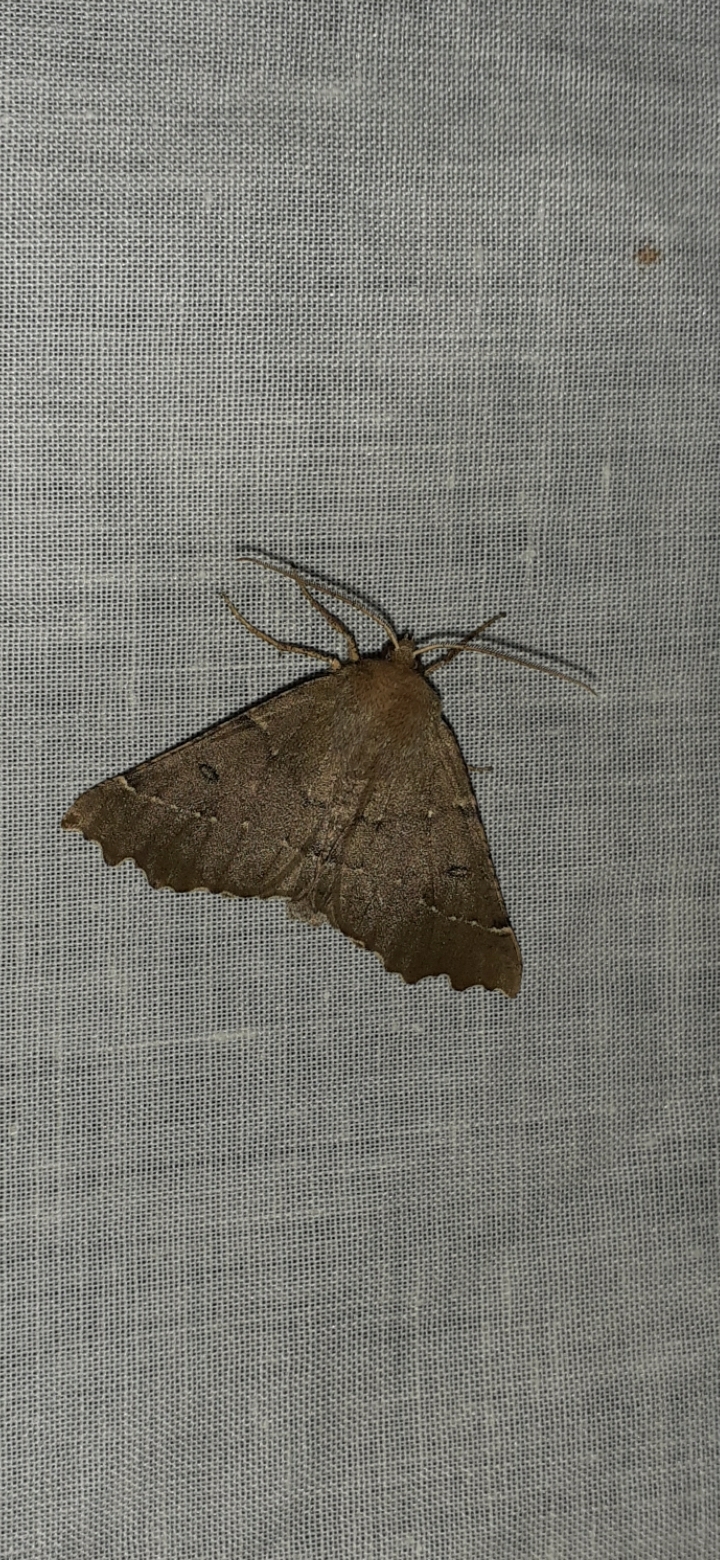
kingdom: Animalia
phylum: Arthropoda
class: Insecta
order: Lepidoptera
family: Geometridae
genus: Odontopera
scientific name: Odontopera bidentata
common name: Scalloped hazel
